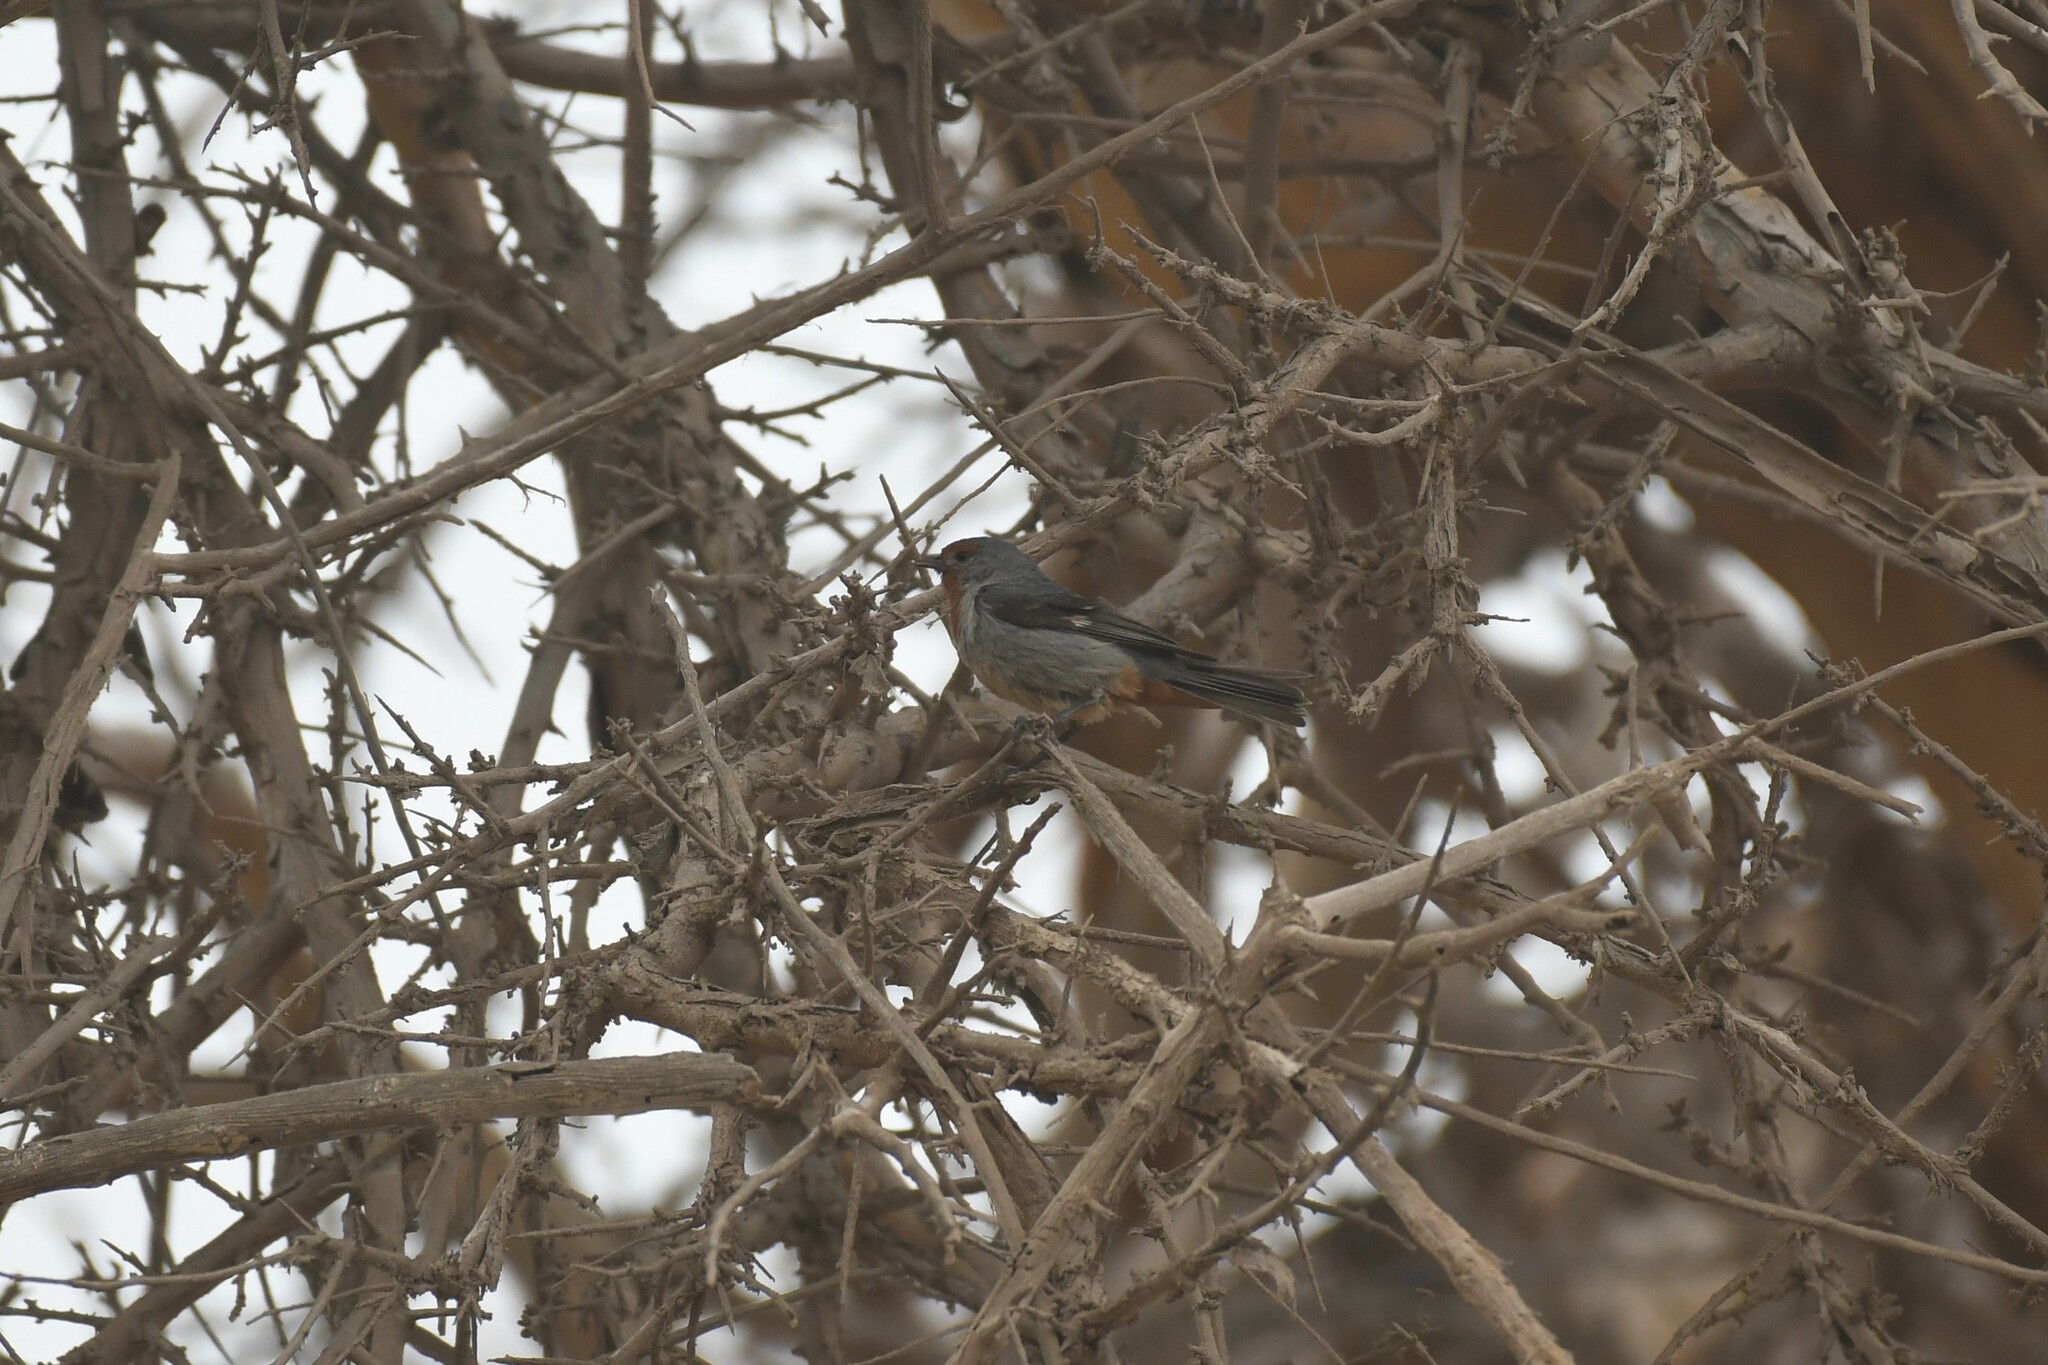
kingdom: Animalia
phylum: Chordata
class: Aves
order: Passeriformes
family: Thraupidae
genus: Conirostrum
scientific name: Conirostrum tamarugense
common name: Tamarugo conebill
